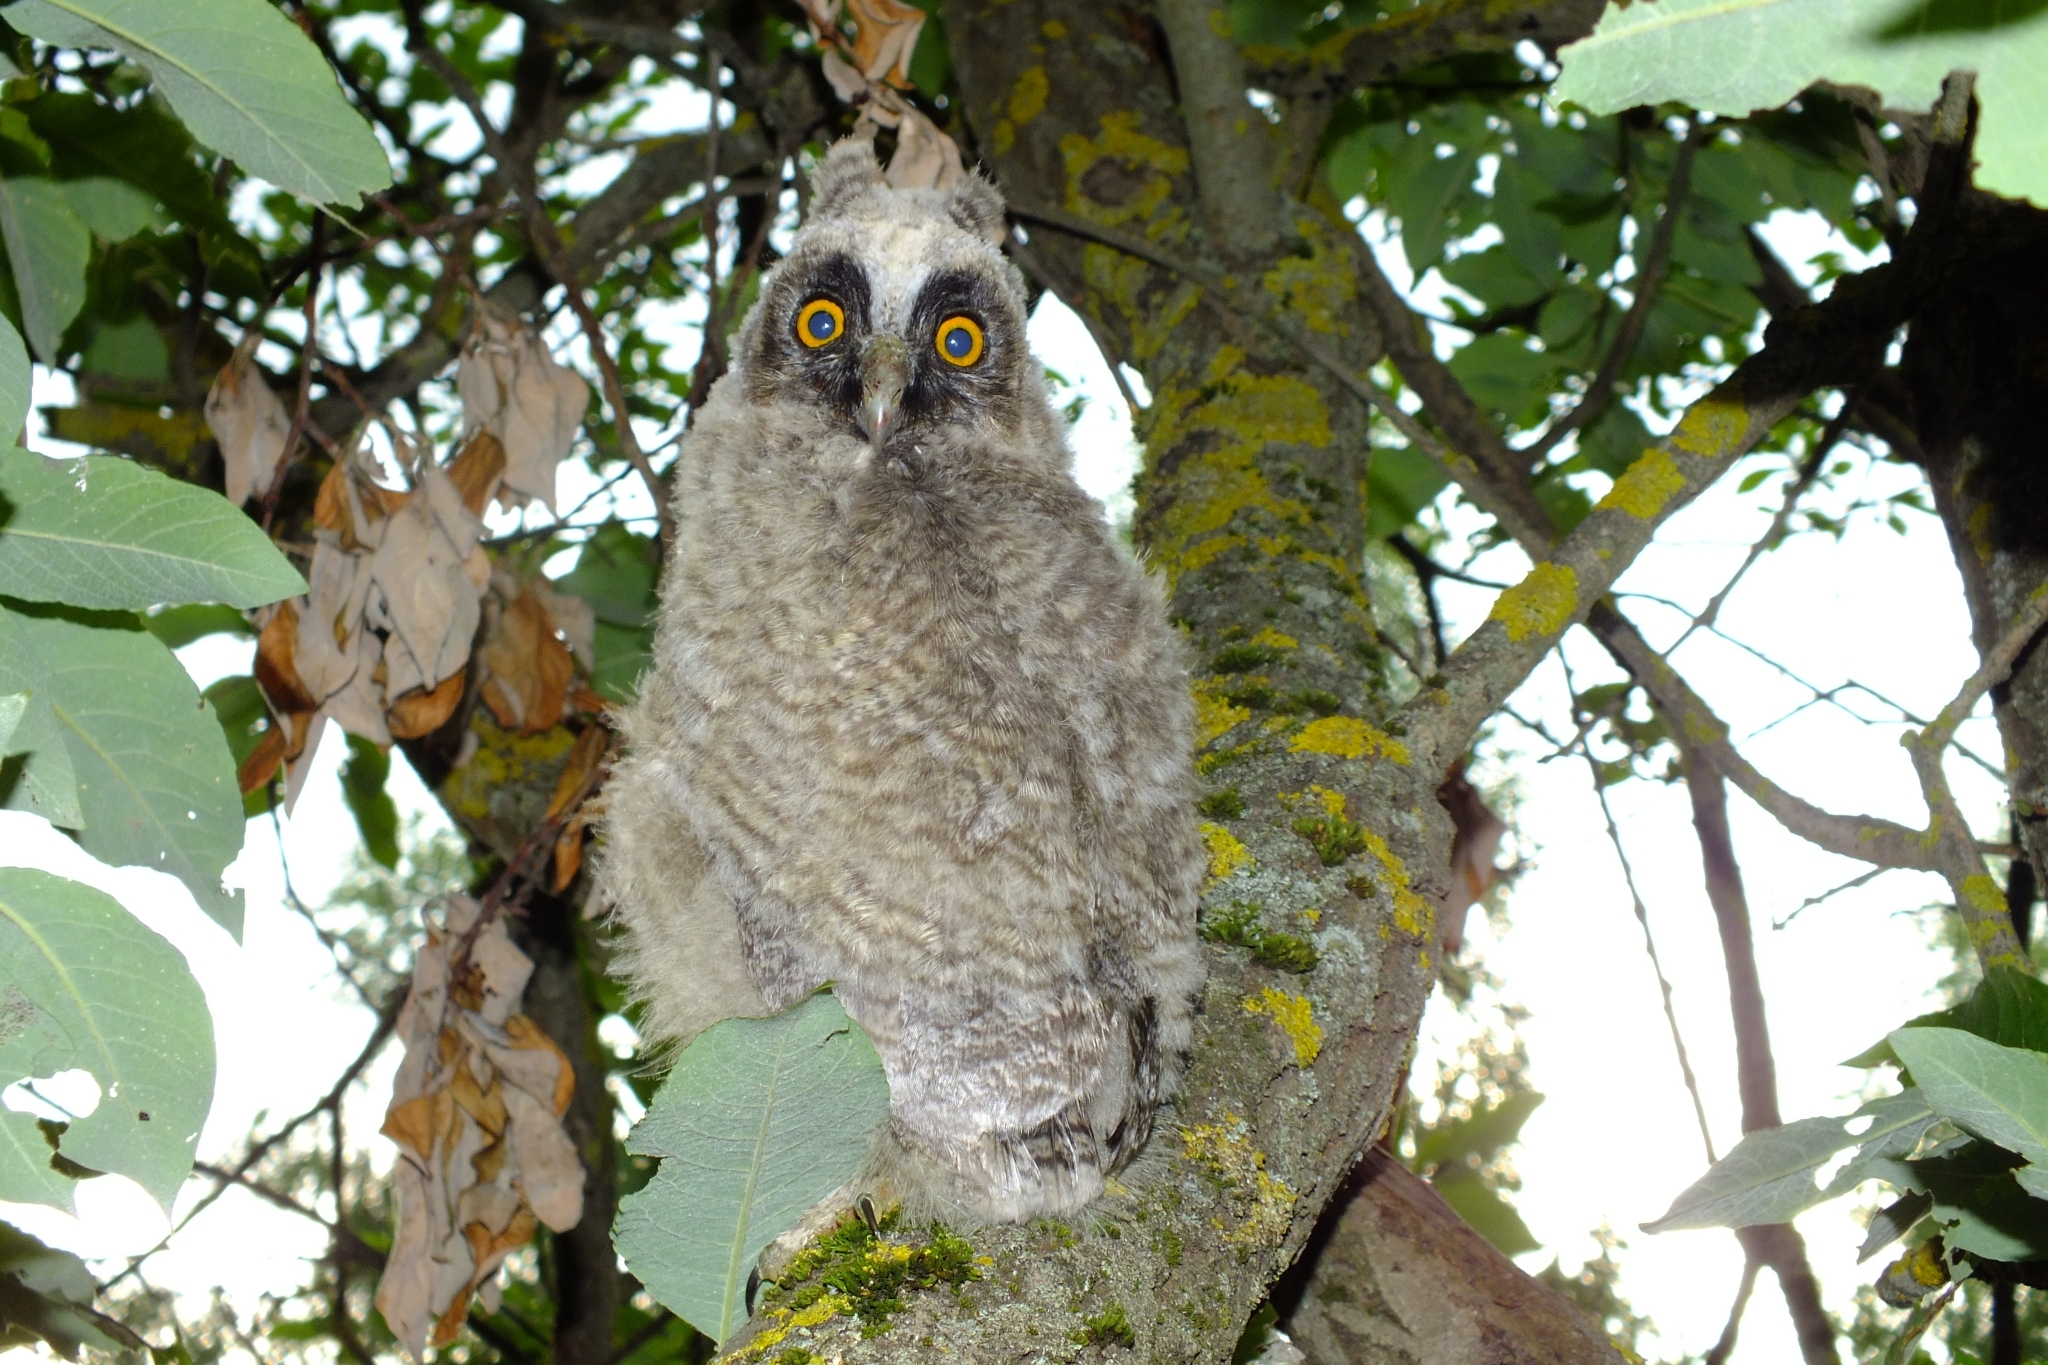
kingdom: Animalia
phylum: Chordata
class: Aves
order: Strigiformes
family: Strigidae
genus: Asio
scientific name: Asio otus
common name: Long-eared owl
